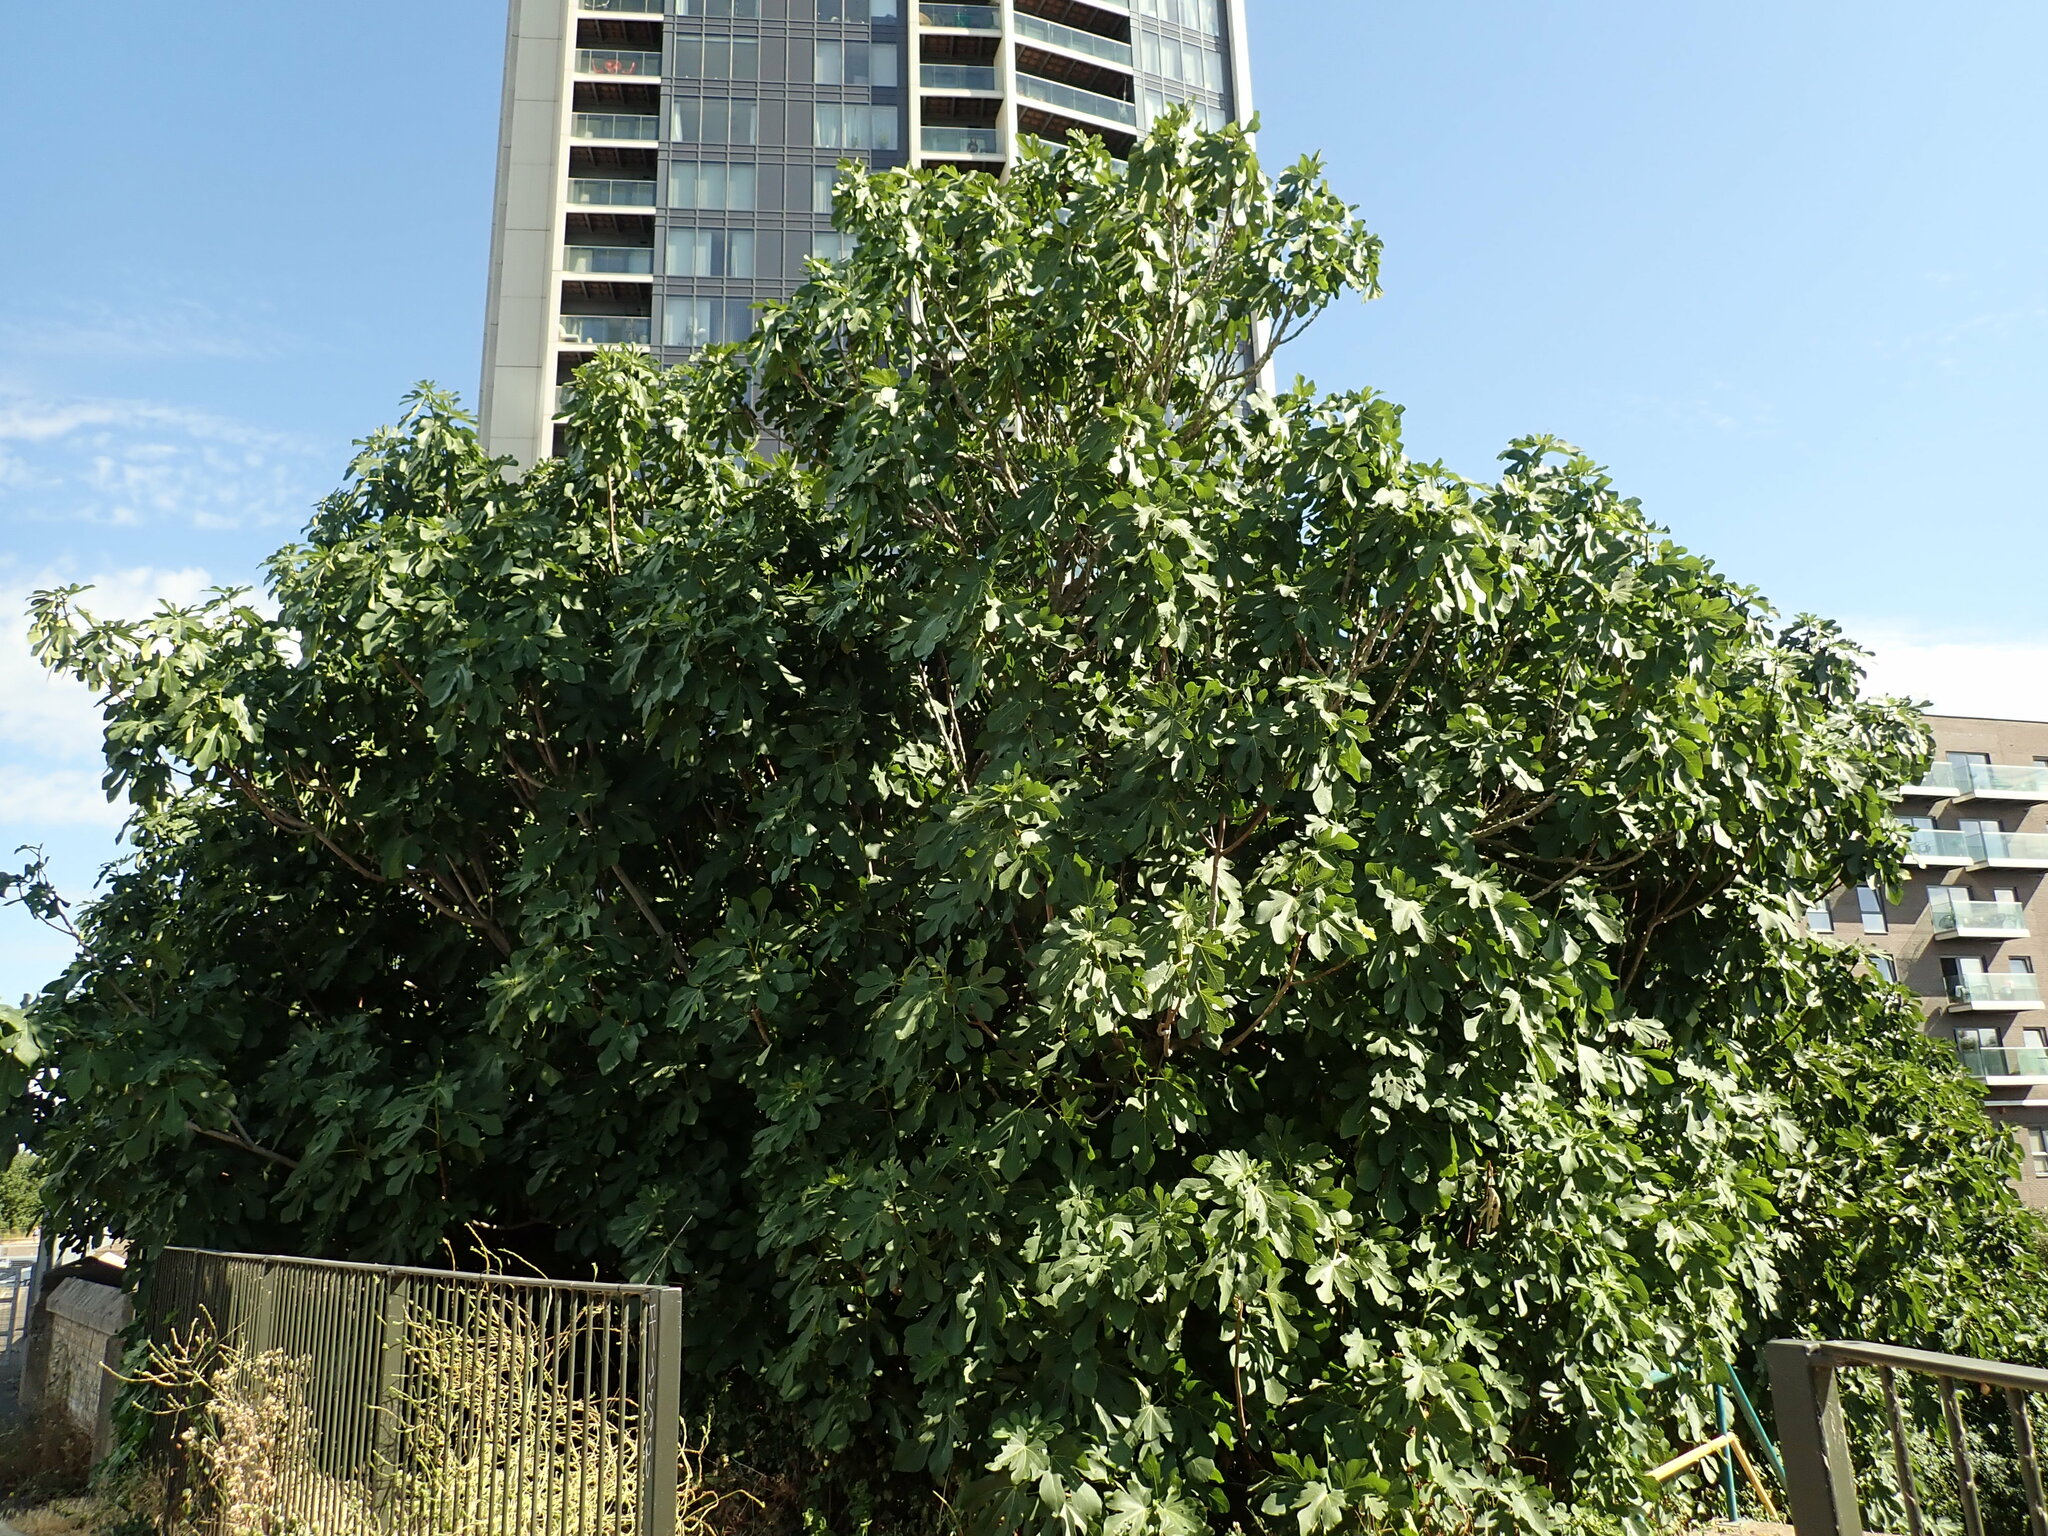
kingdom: Plantae
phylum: Tracheophyta
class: Magnoliopsida
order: Rosales
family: Moraceae
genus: Ficus
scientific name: Ficus carica
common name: Fig
